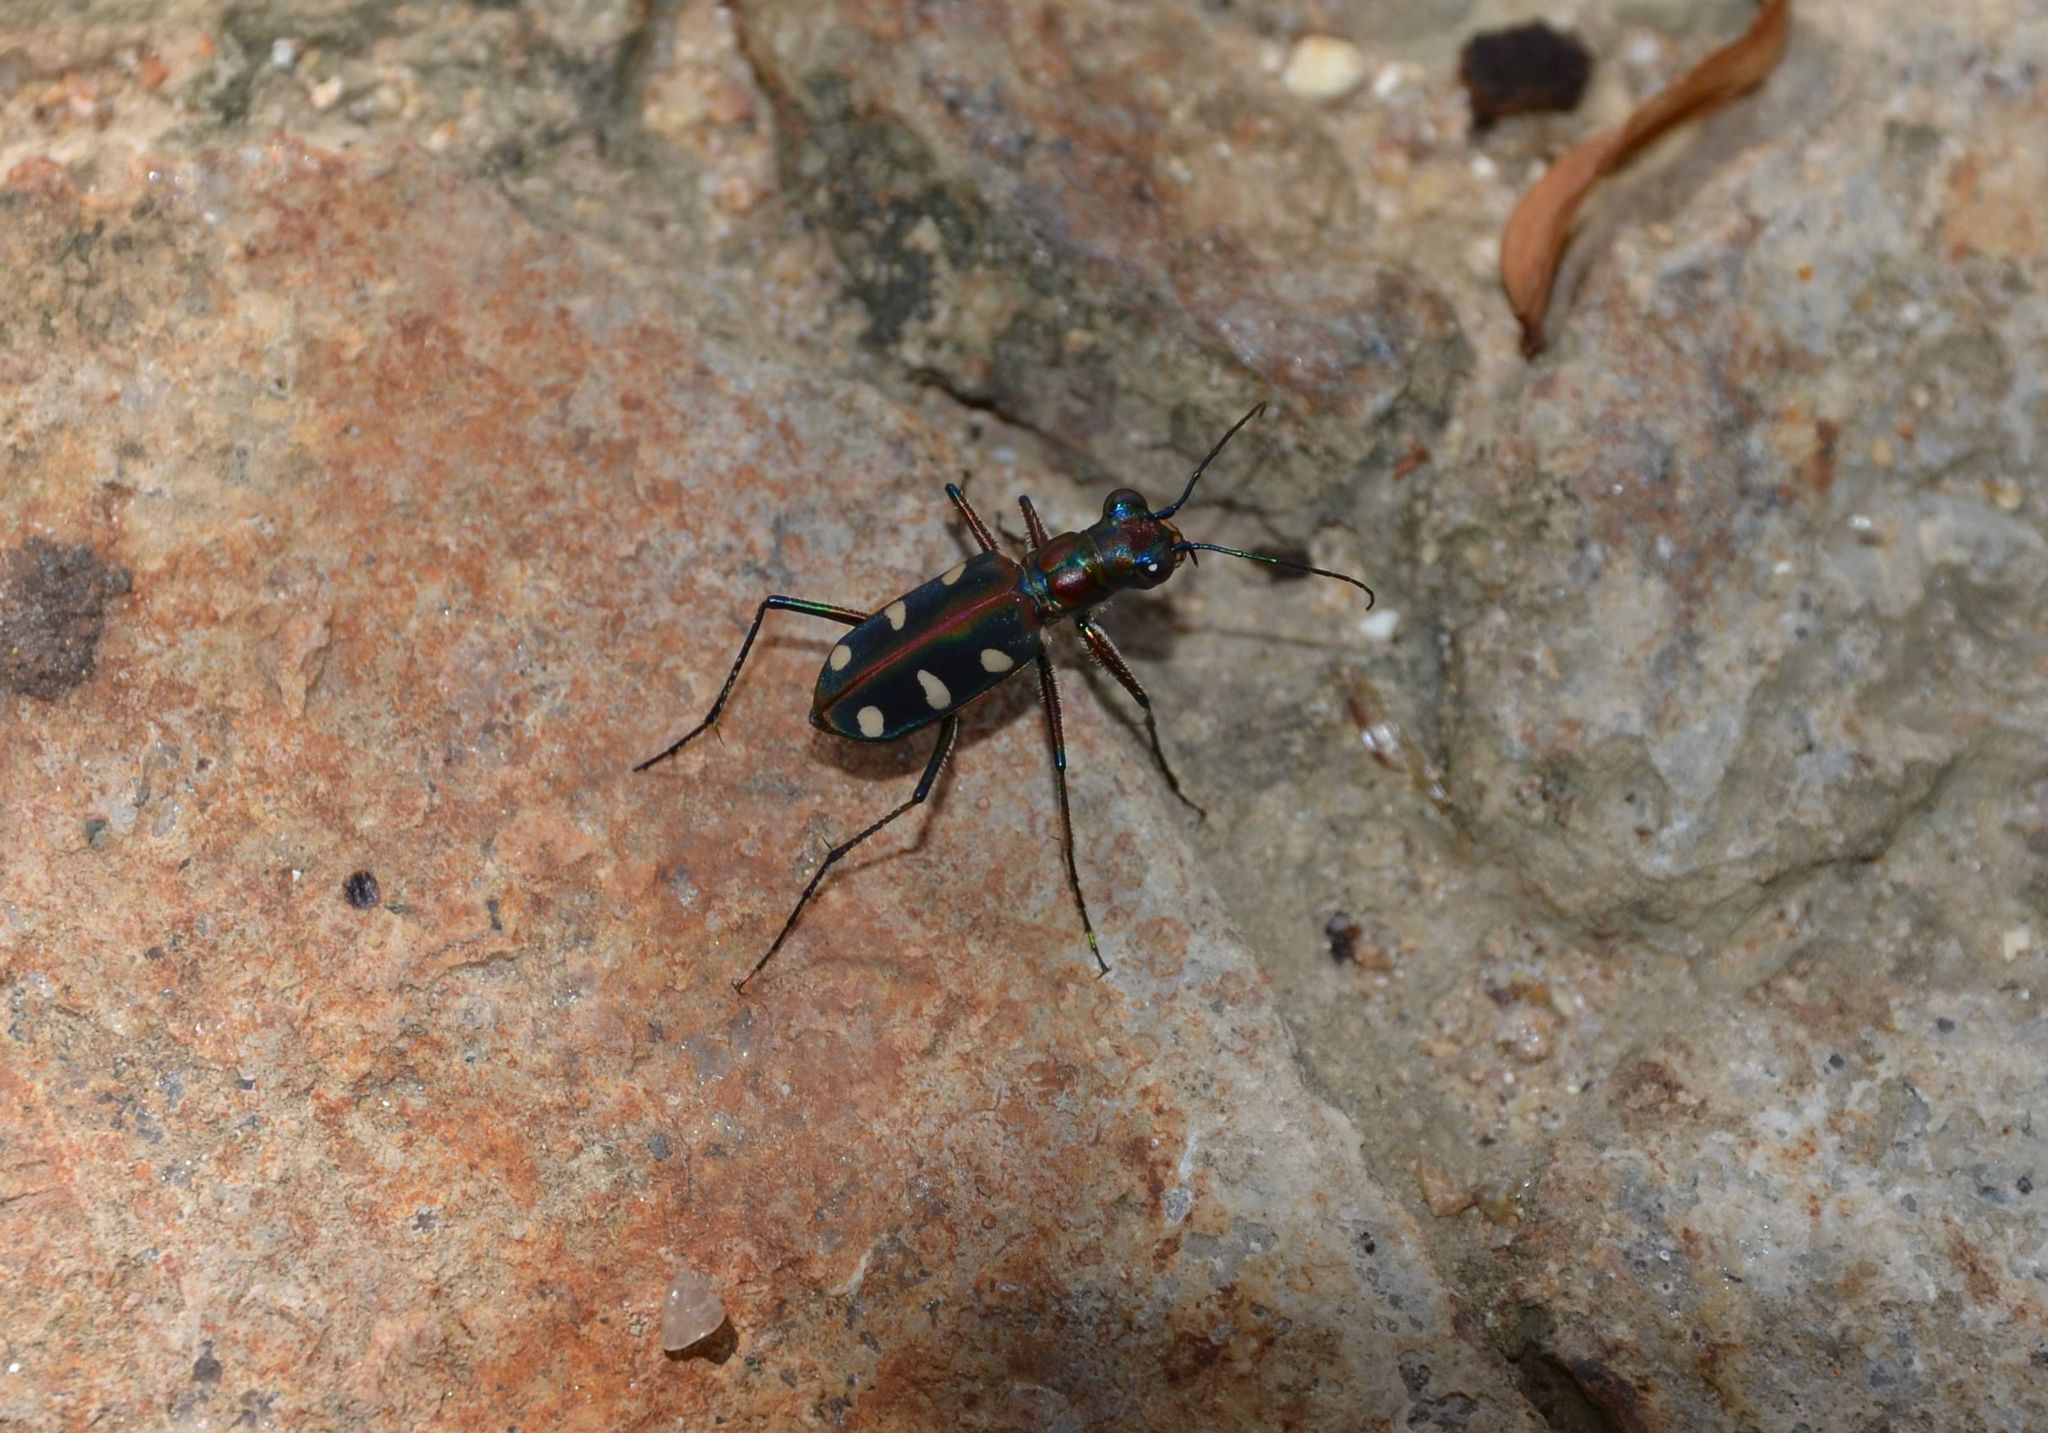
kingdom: Animalia
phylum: Arthropoda
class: Insecta
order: Coleoptera
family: Carabidae
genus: Cicindela
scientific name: Cicindela aurulenta
